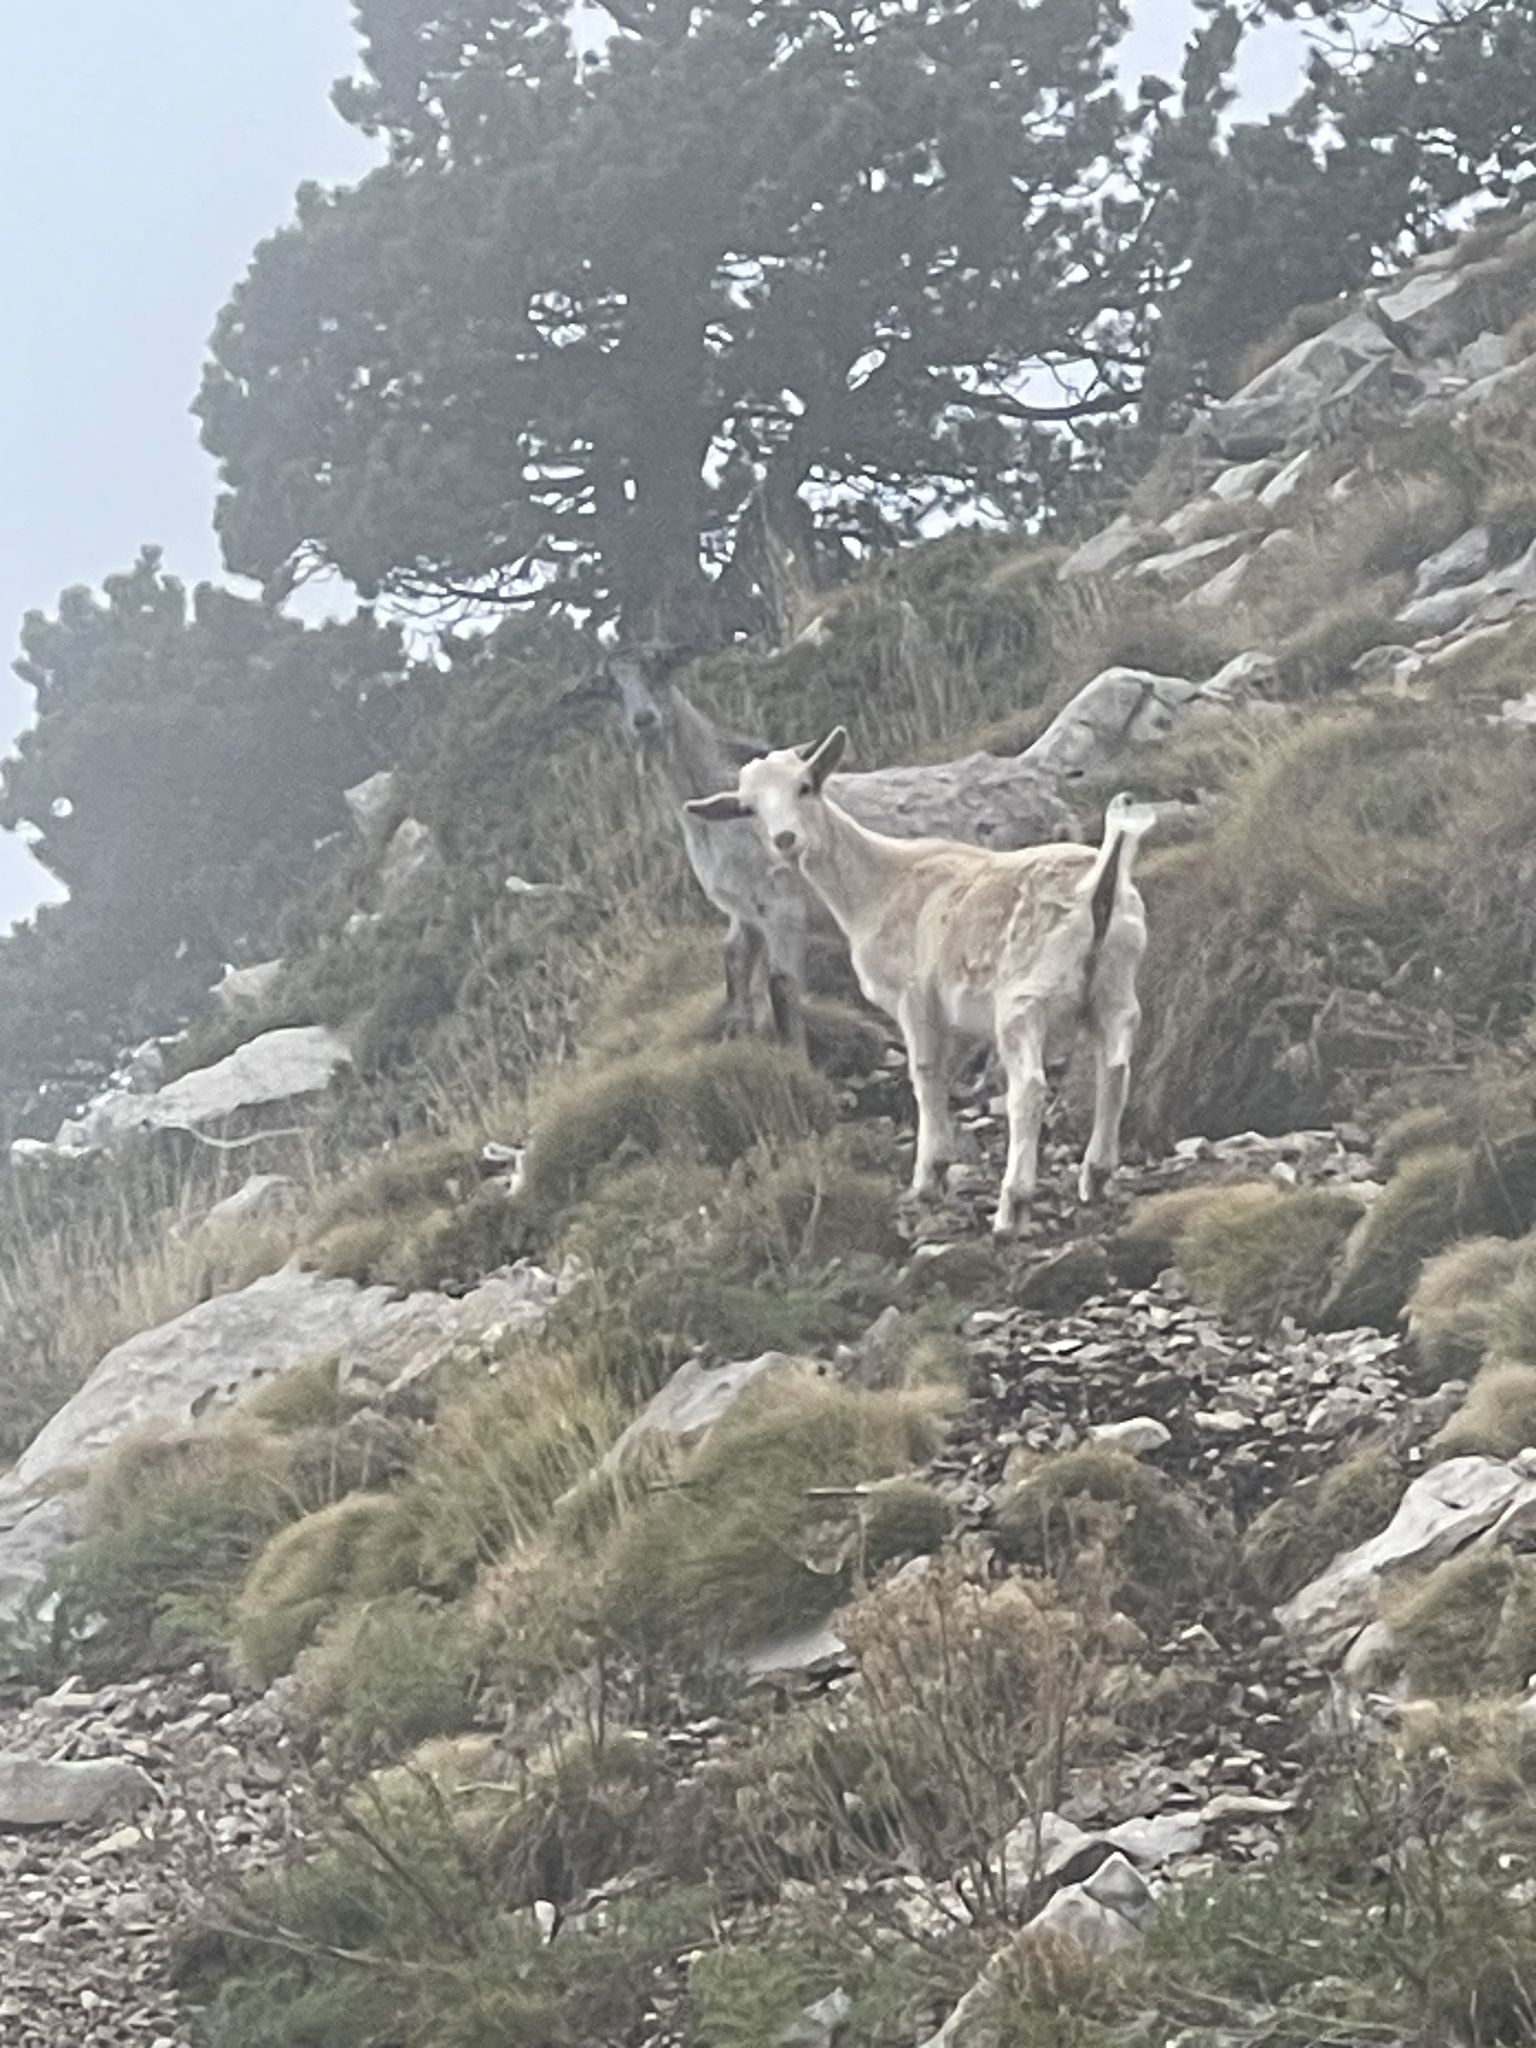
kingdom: Animalia
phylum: Chordata
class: Mammalia
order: Artiodactyla
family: Bovidae
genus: Capra
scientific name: Capra hircus
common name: Domestic goat
